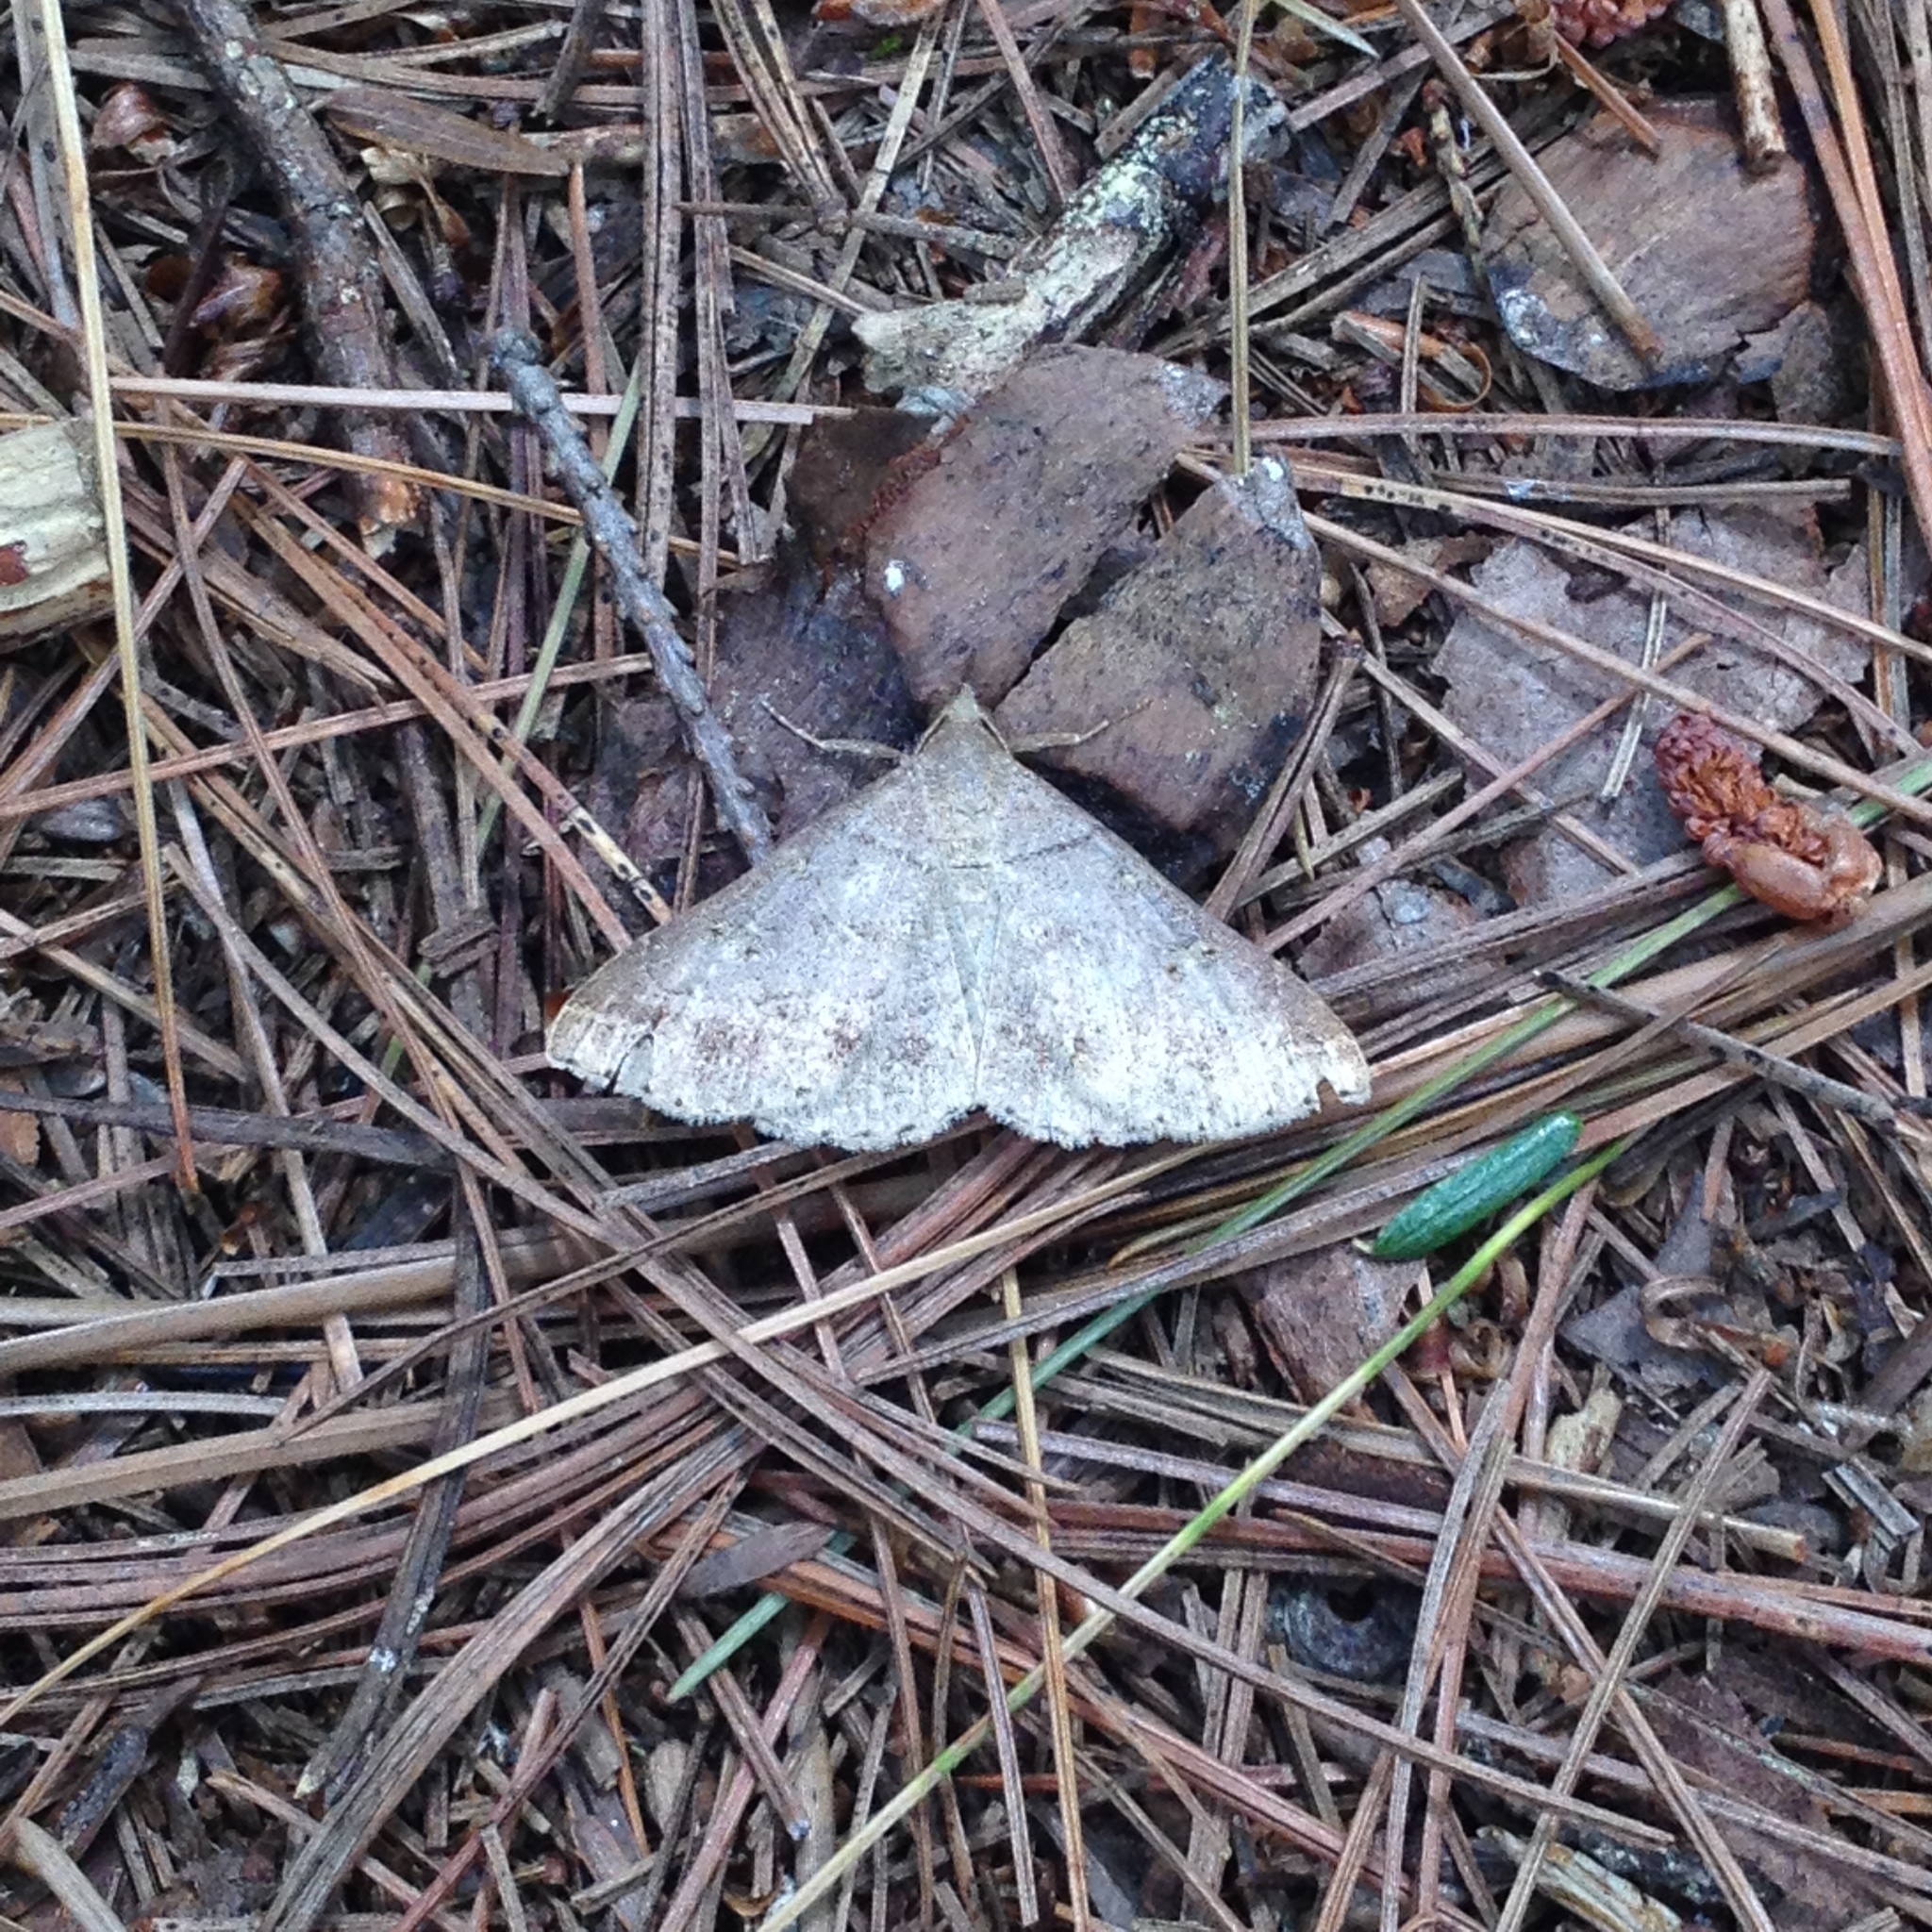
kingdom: Animalia
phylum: Arthropoda
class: Insecta
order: Lepidoptera
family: Erebidae
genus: Renia
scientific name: Renia flavipunctalis
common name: Yellow-spotted renia moth
